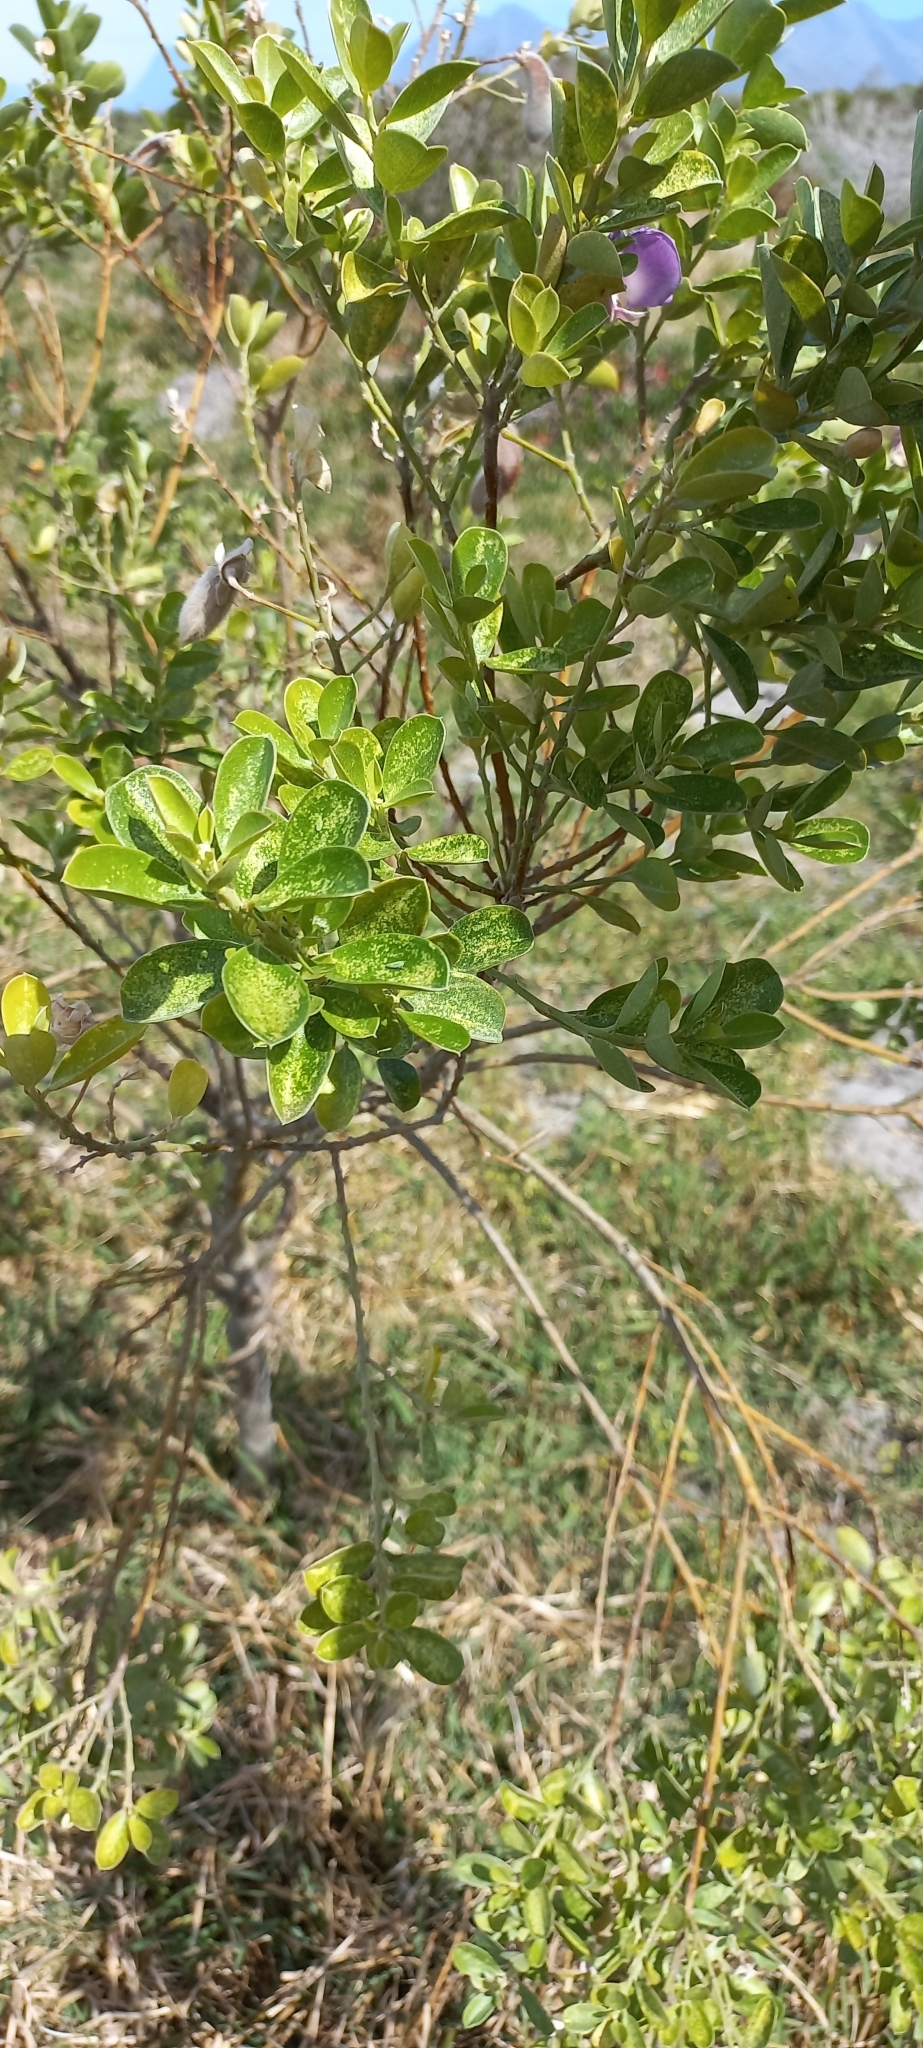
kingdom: Plantae
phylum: Tracheophyta
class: Magnoliopsida
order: Fabales
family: Fabaceae
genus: Podalyria
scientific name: Podalyria calyptrata
